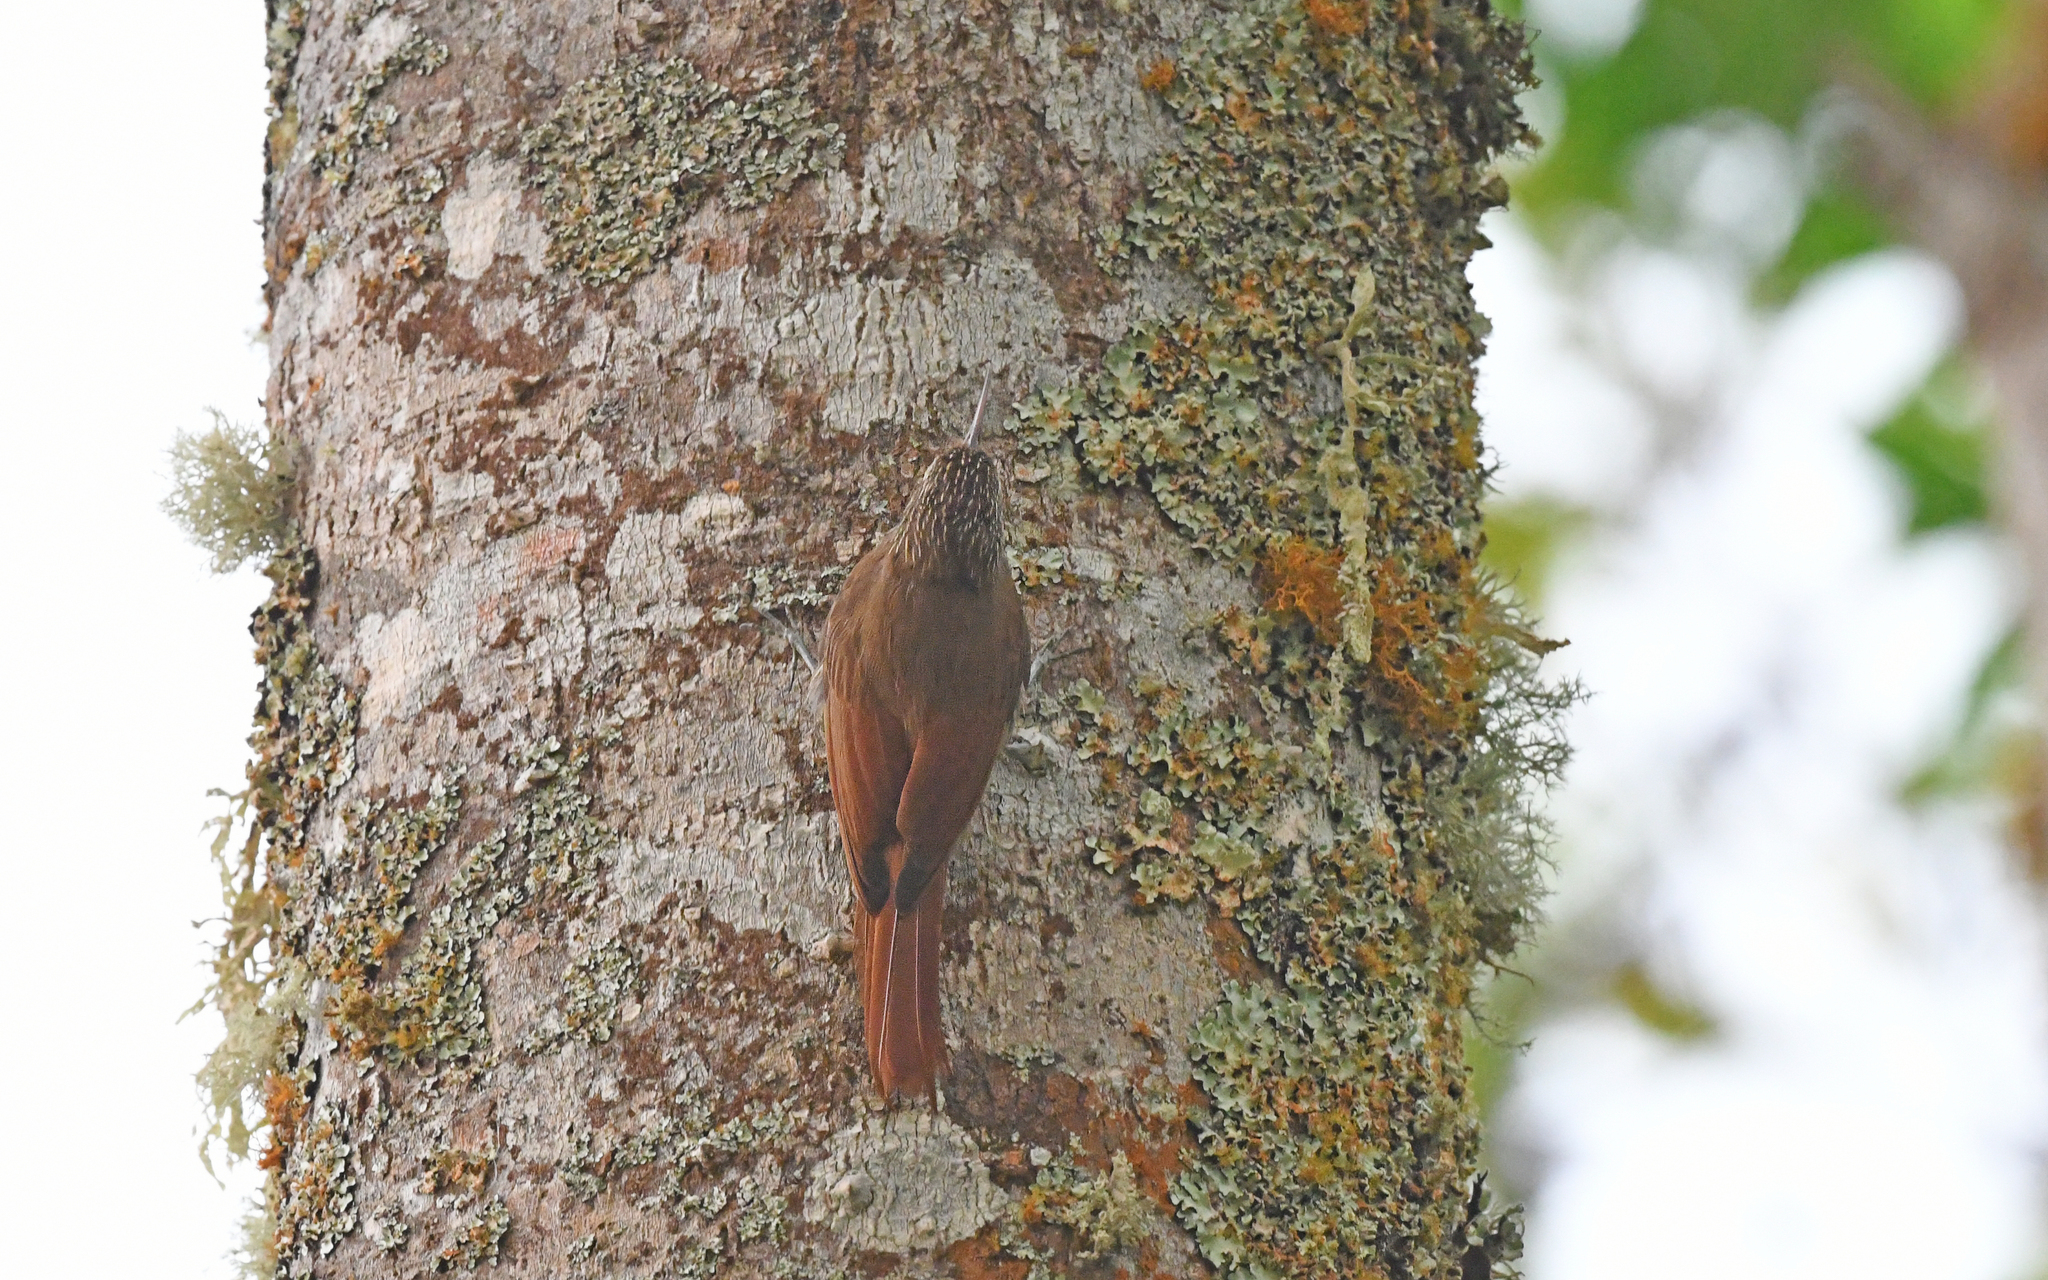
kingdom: Animalia
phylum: Chordata
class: Aves
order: Passeriformes
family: Furnariidae
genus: Lepidocolaptes
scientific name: Lepidocolaptes souleyetii
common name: Streak-headed woodcreeper
